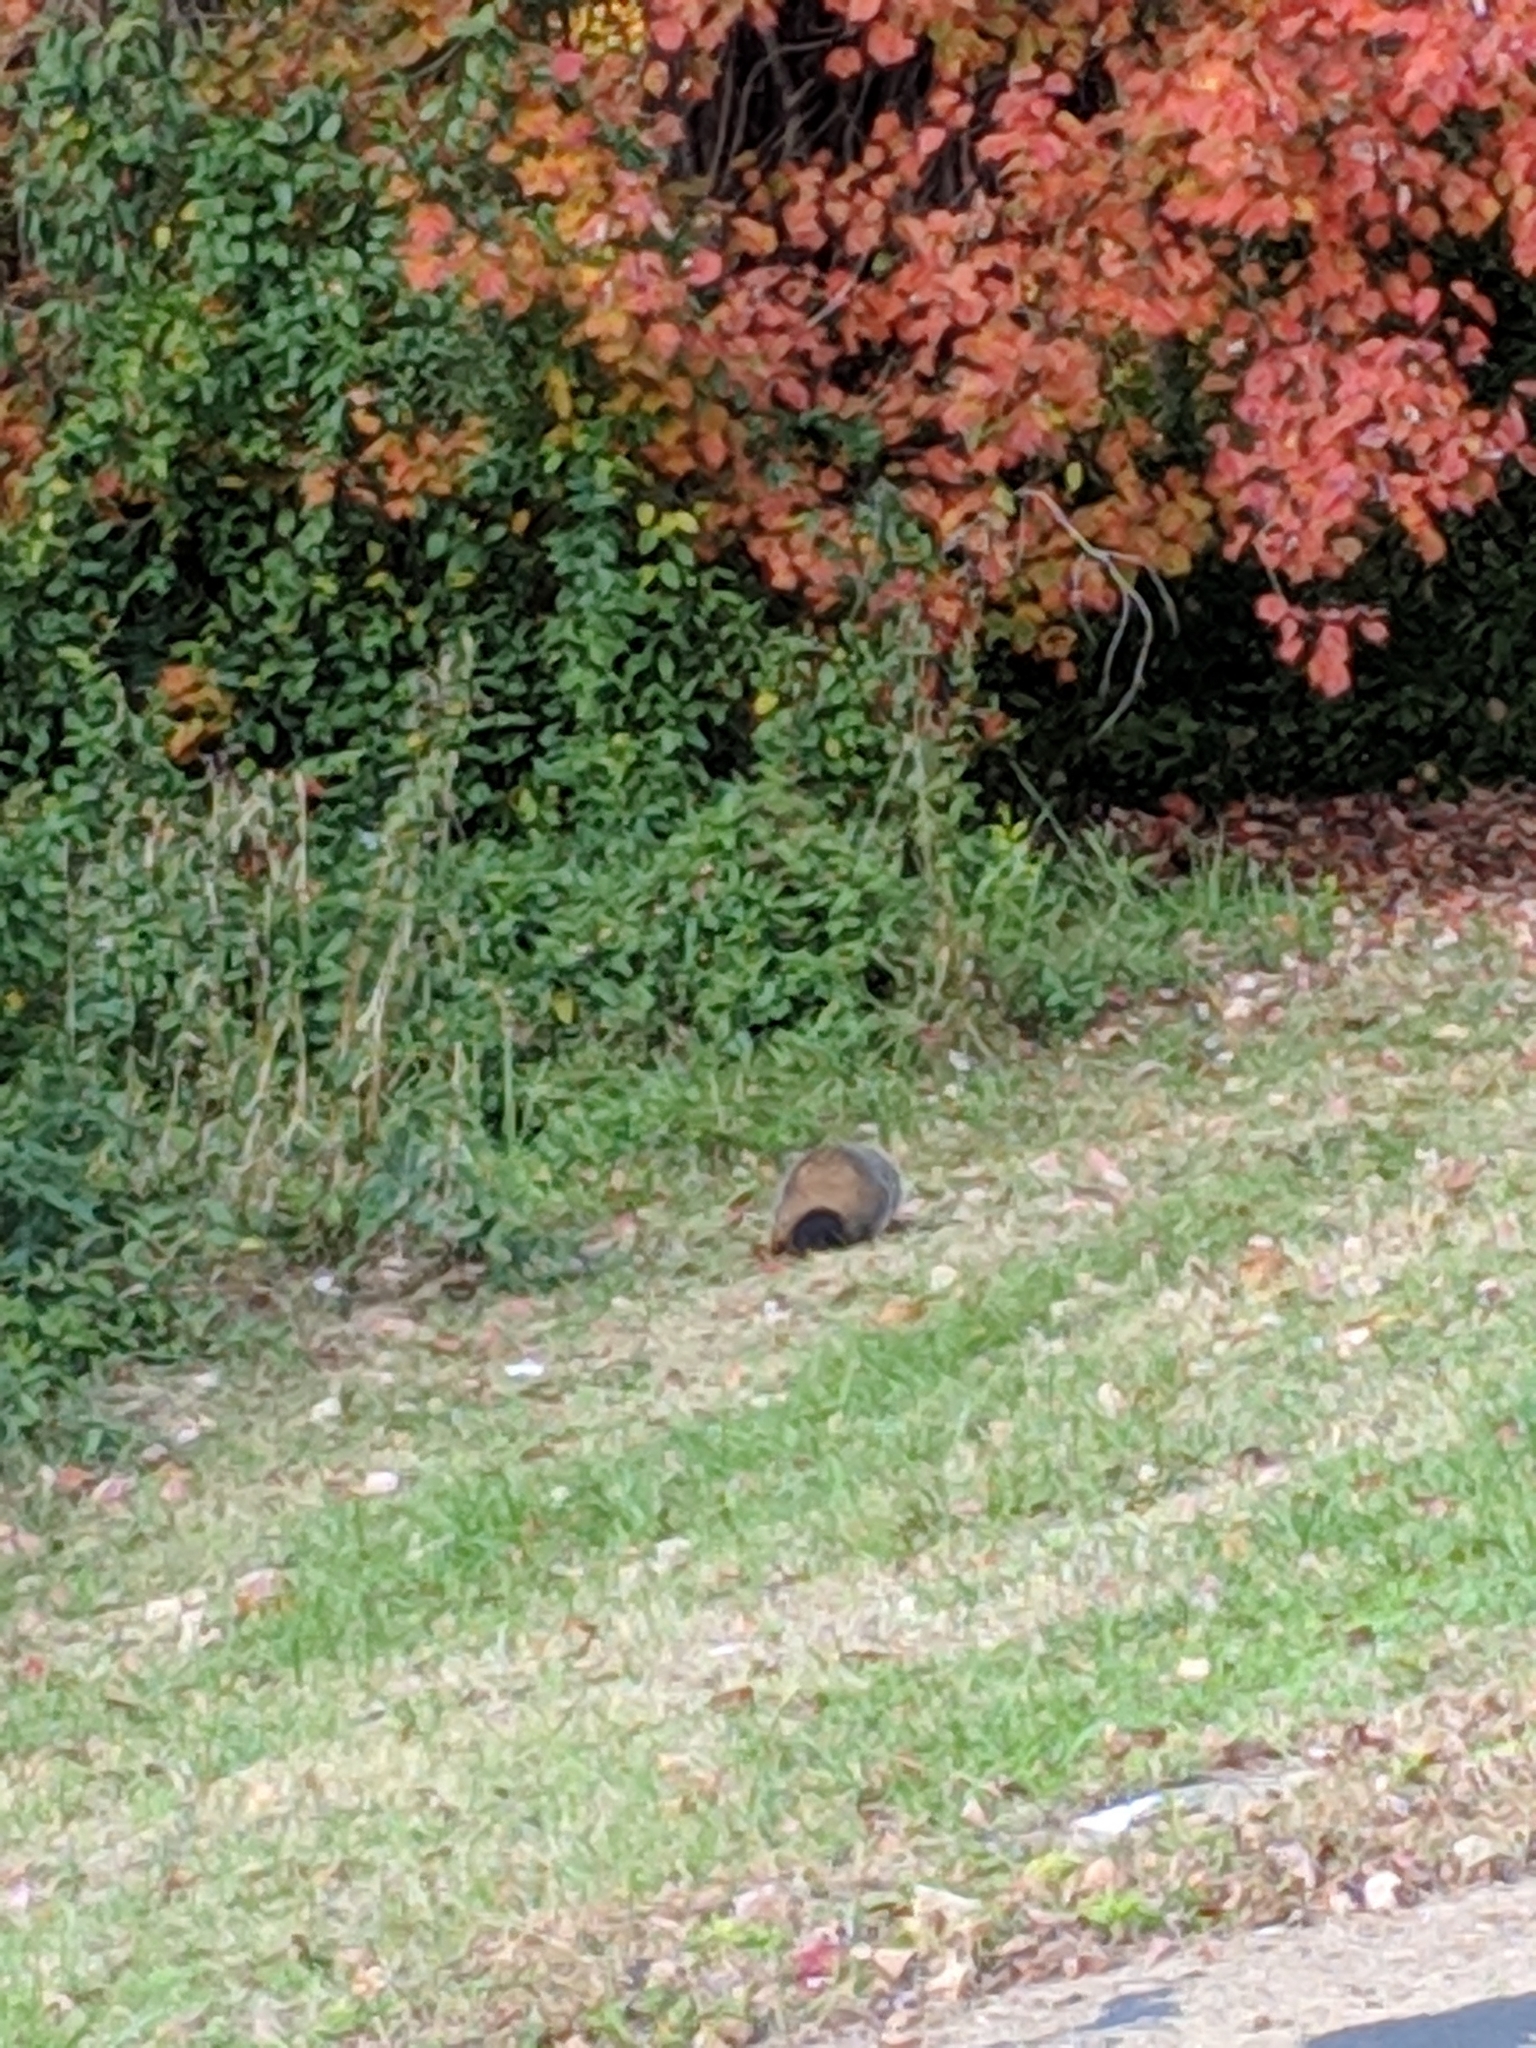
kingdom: Animalia
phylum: Chordata
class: Mammalia
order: Rodentia
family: Sciuridae
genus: Marmota
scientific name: Marmota monax
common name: Groundhog
